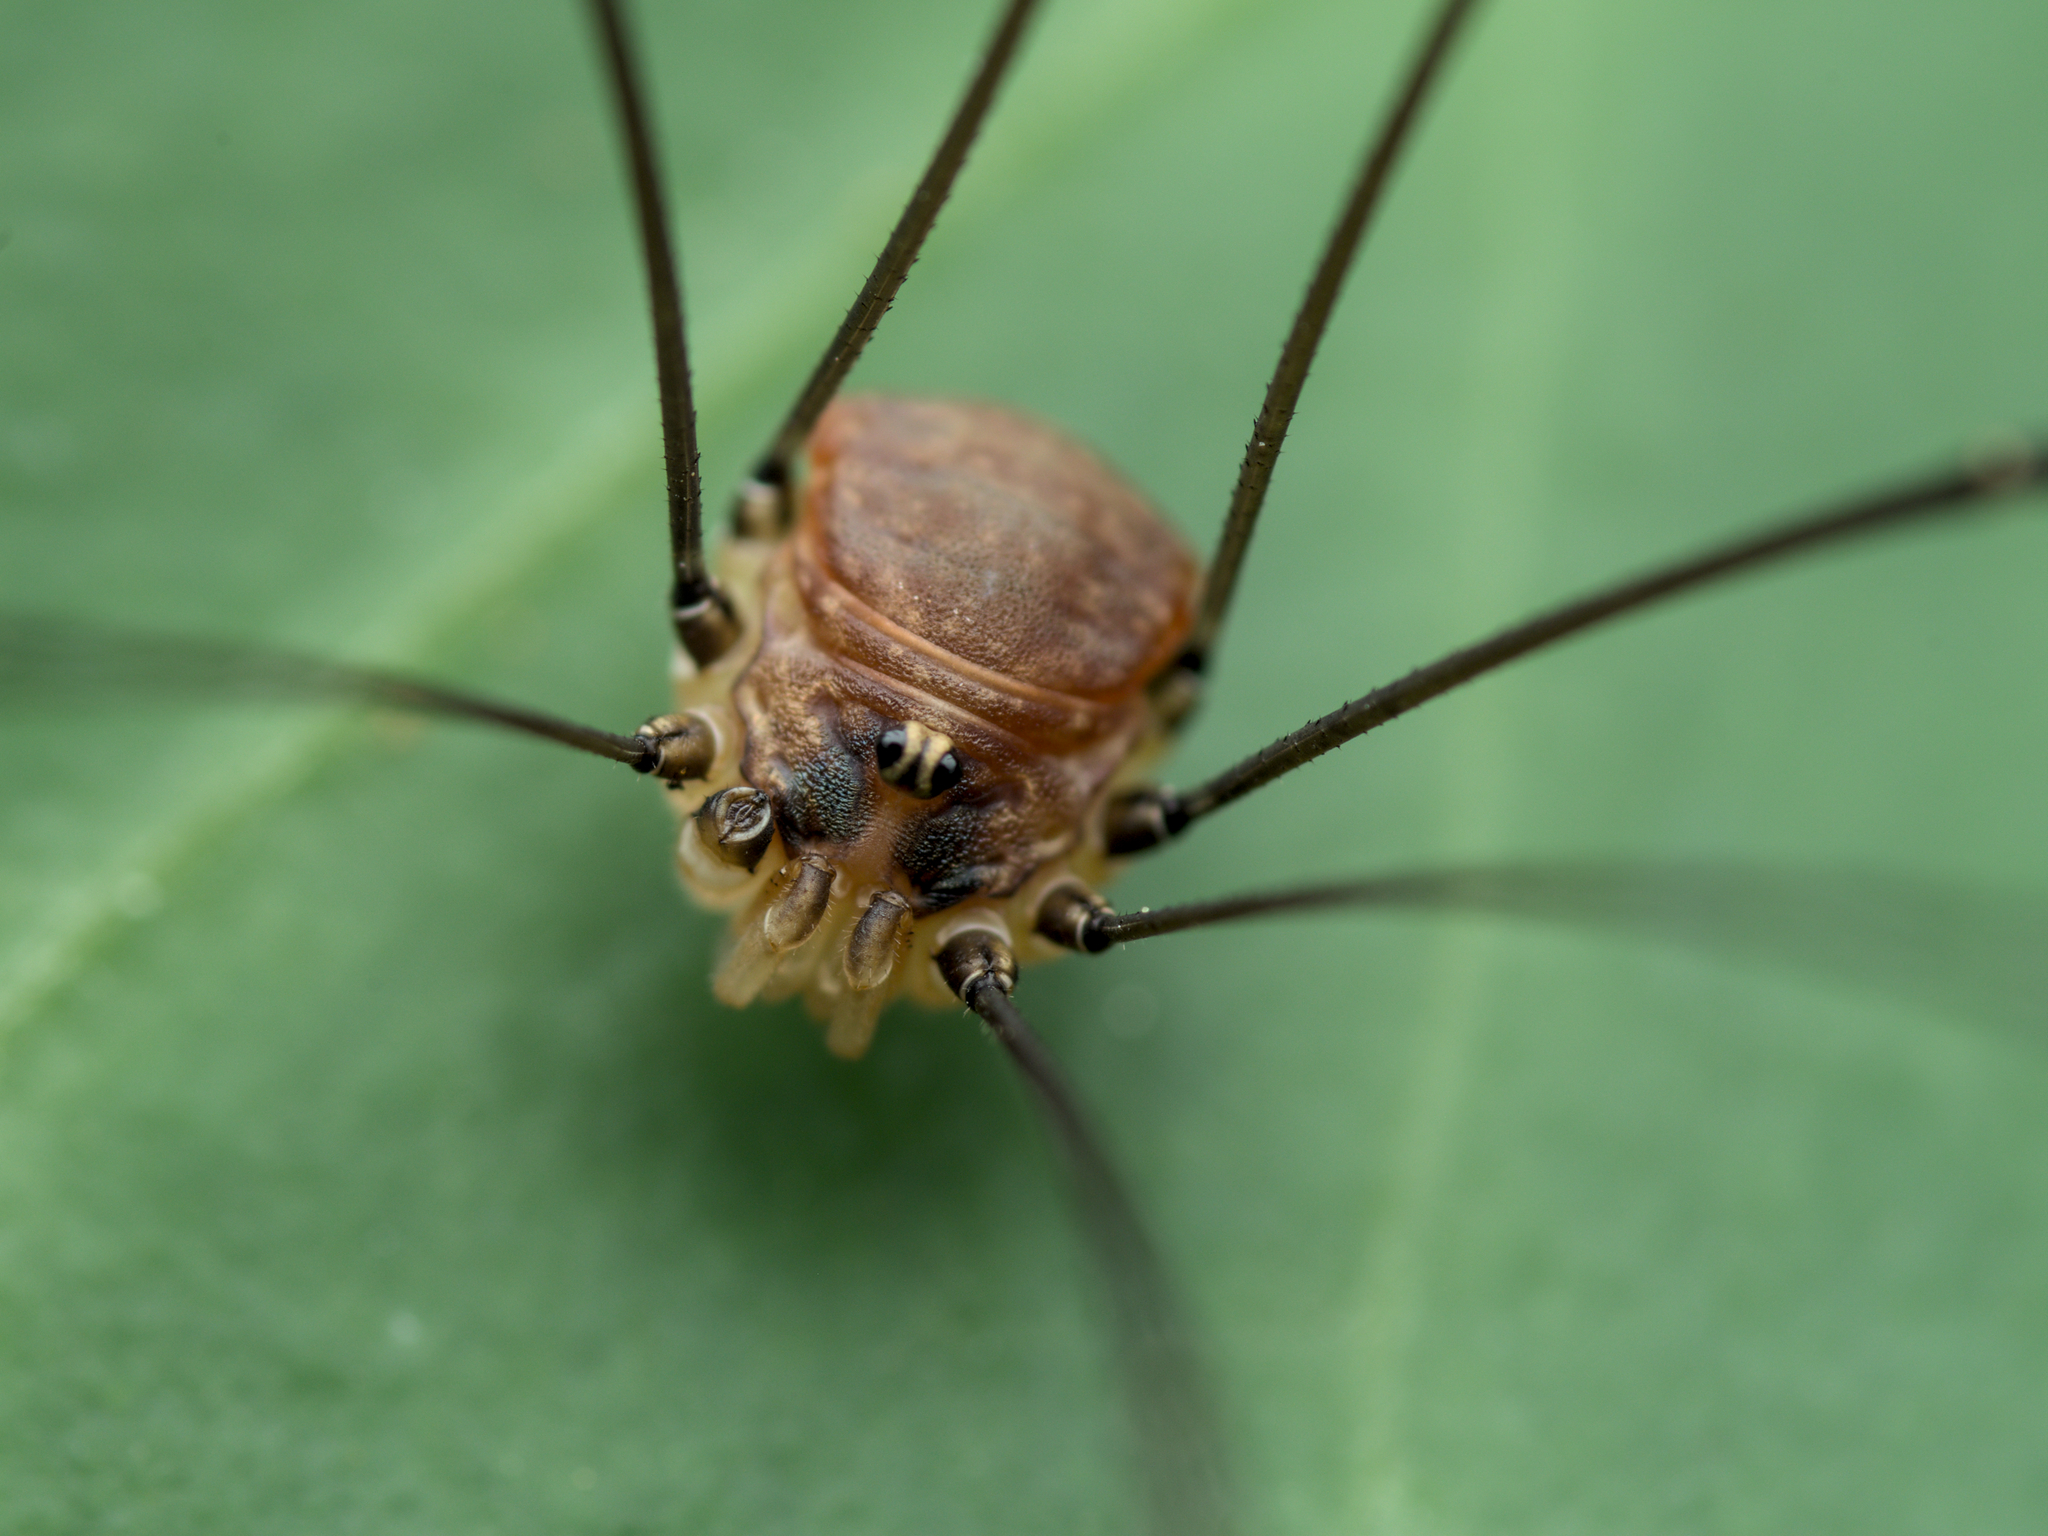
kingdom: Animalia
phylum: Arthropoda
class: Arachnida
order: Opiliones
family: Sclerosomatidae
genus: Leiobunum
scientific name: Leiobunum blackwalli
